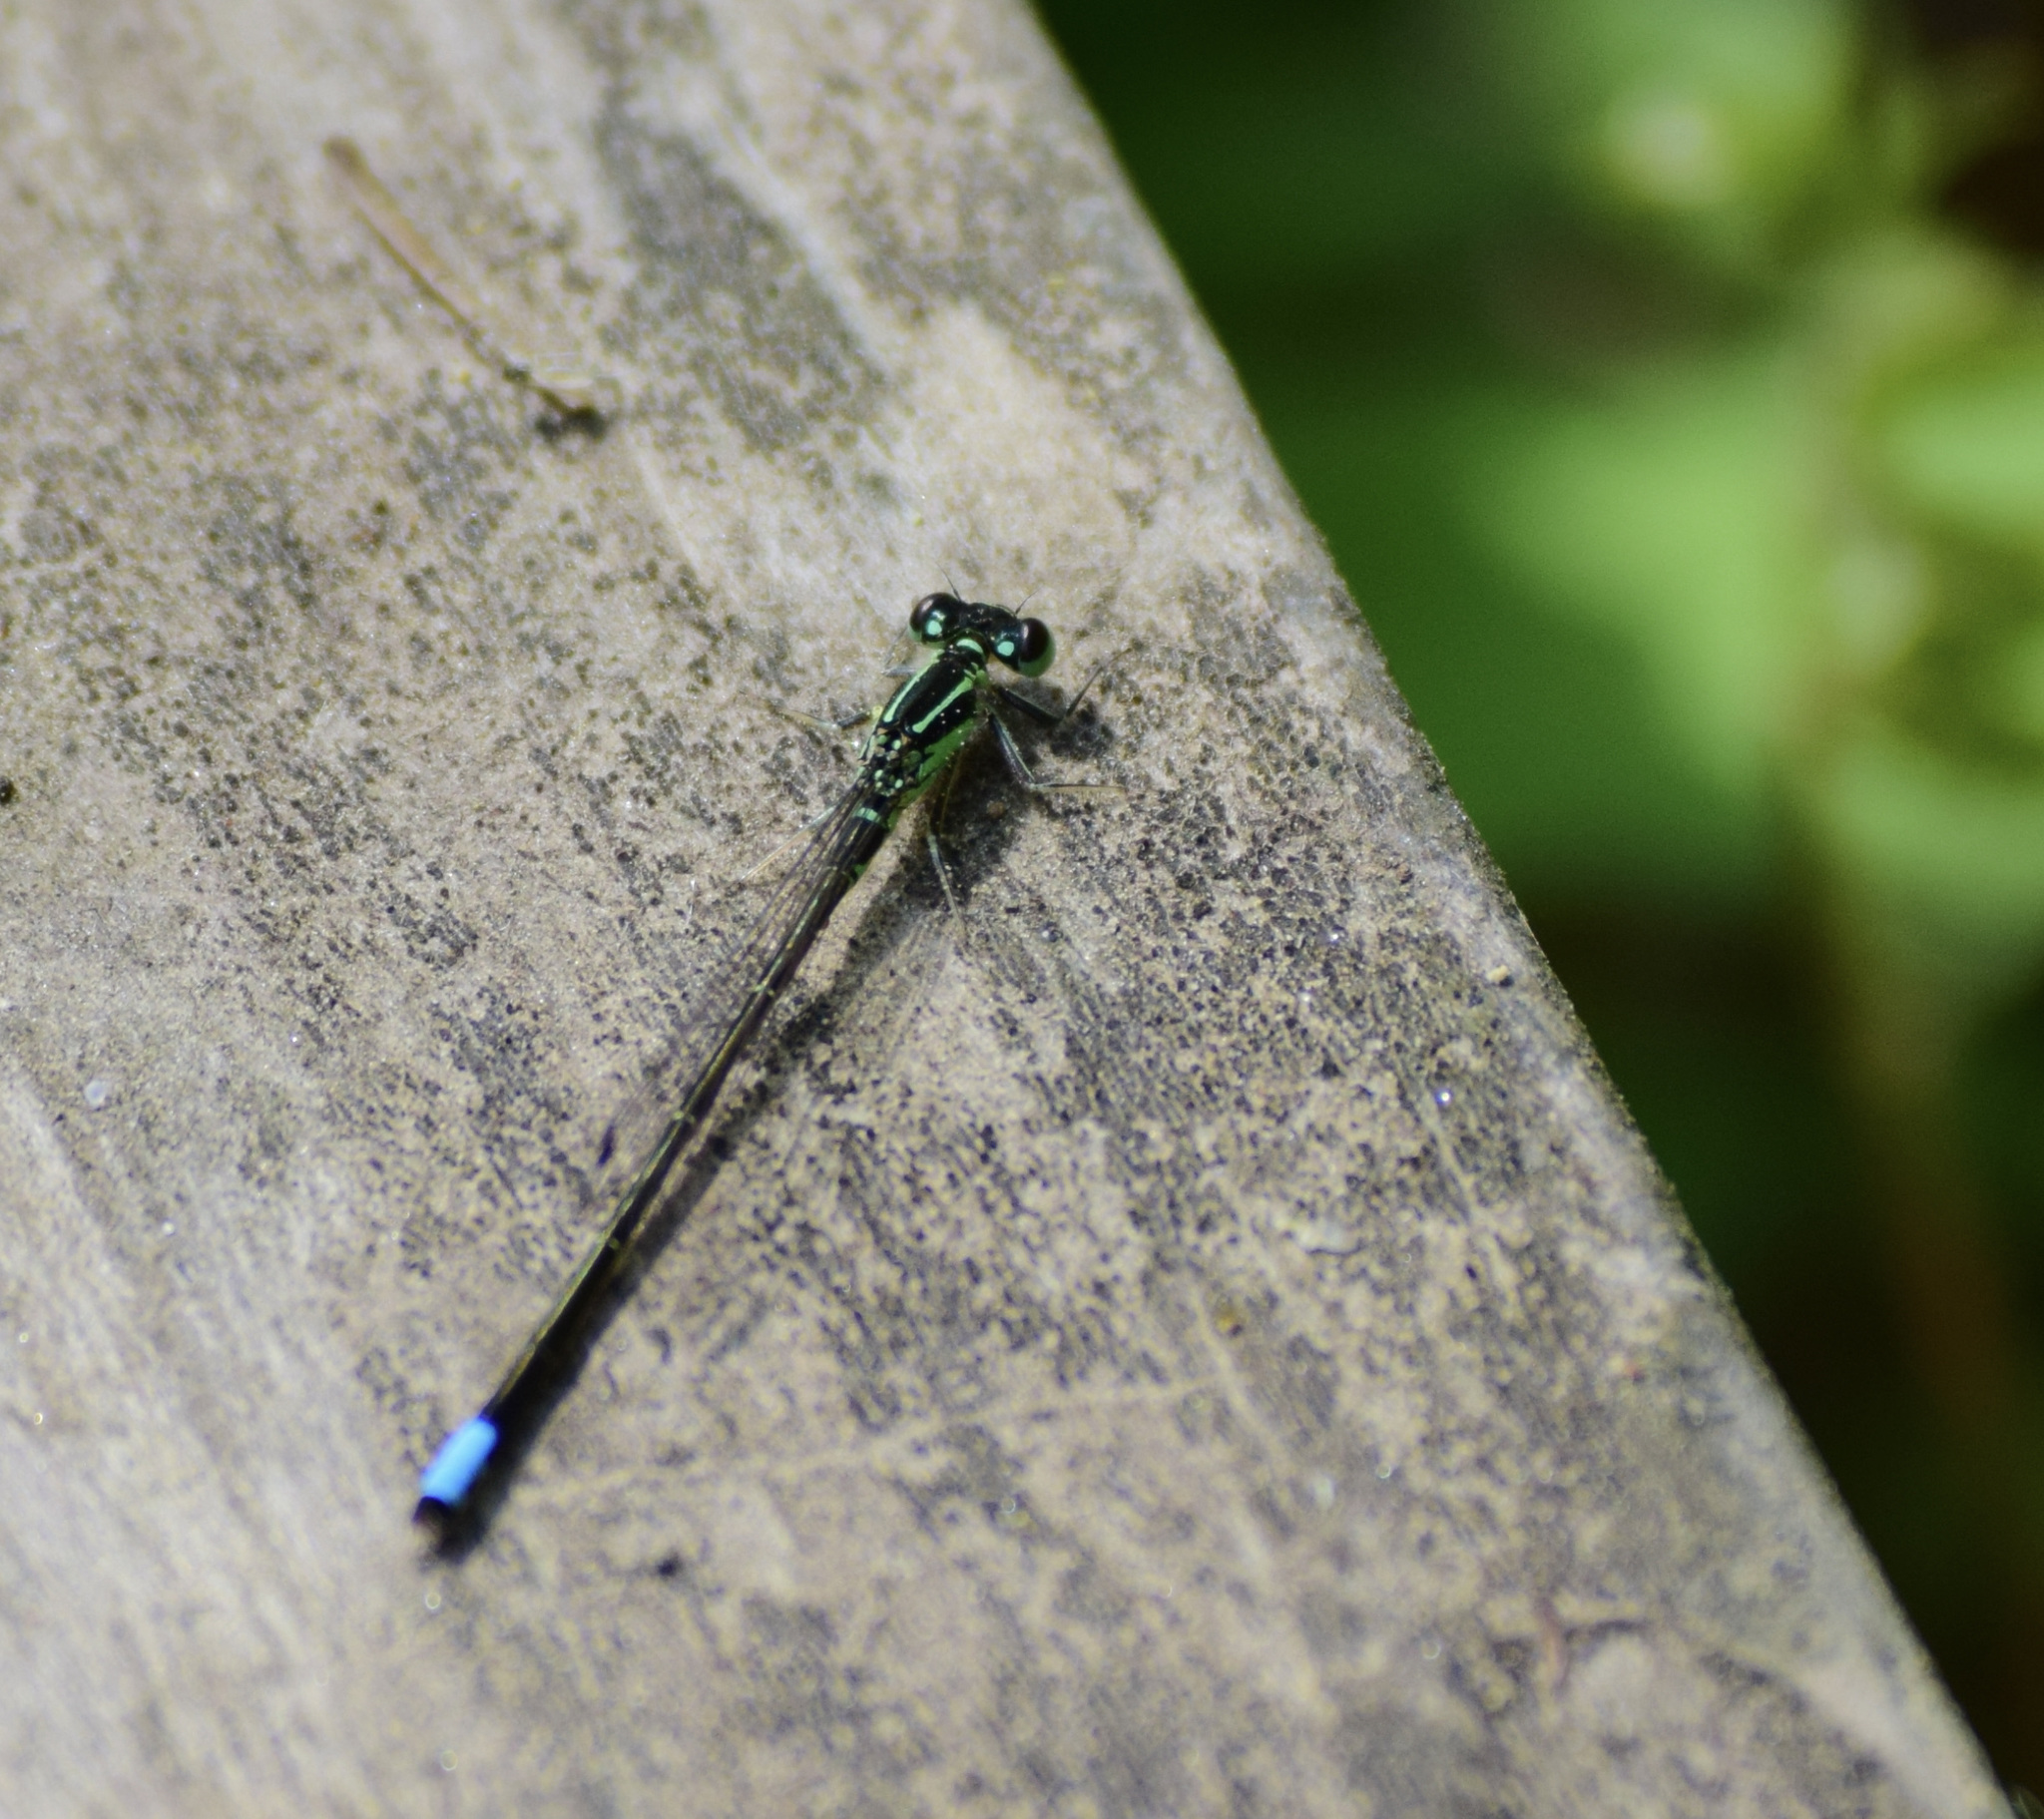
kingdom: Animalia
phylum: Arthropoda
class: Insecta
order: Odonata
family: Coenagrionidae
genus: Ischnura
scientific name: Ischnura verticalis
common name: Eastern forktail
